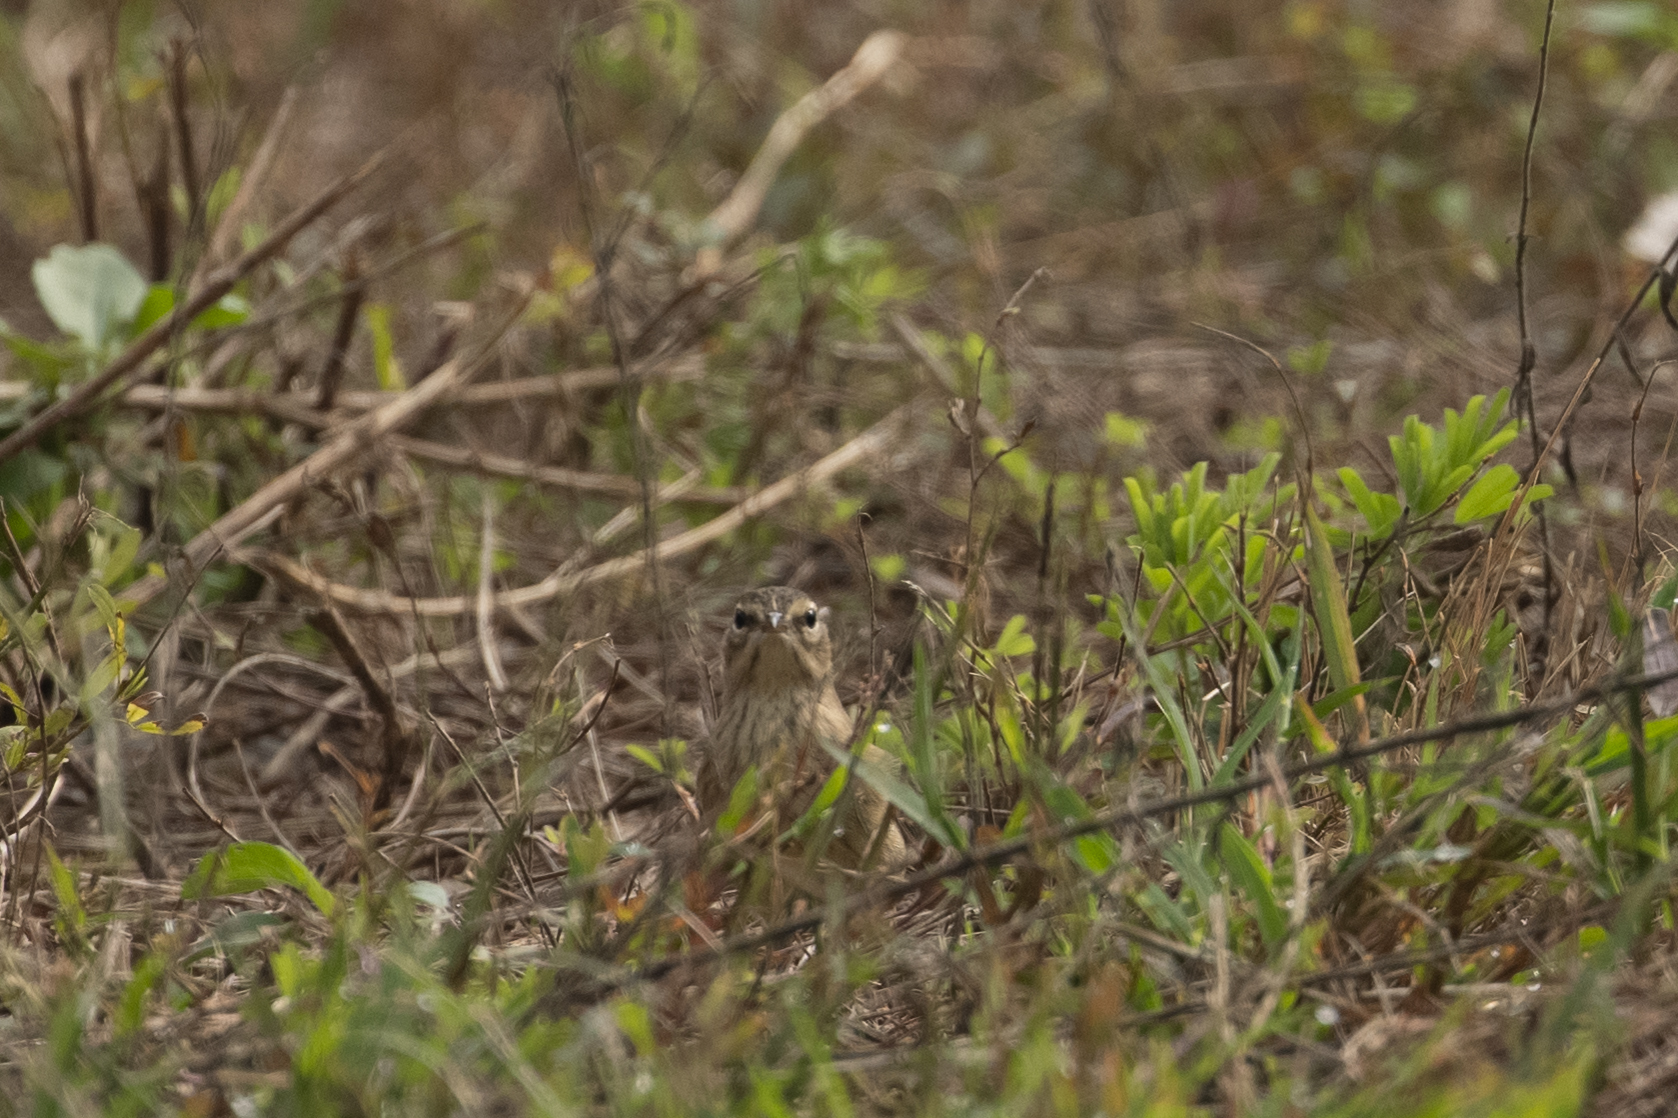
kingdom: Animalia
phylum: Chordata
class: Aves
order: Passeriformes
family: Parulidae
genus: Setophaga
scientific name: Setophaga palmarum
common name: Palm warbler
